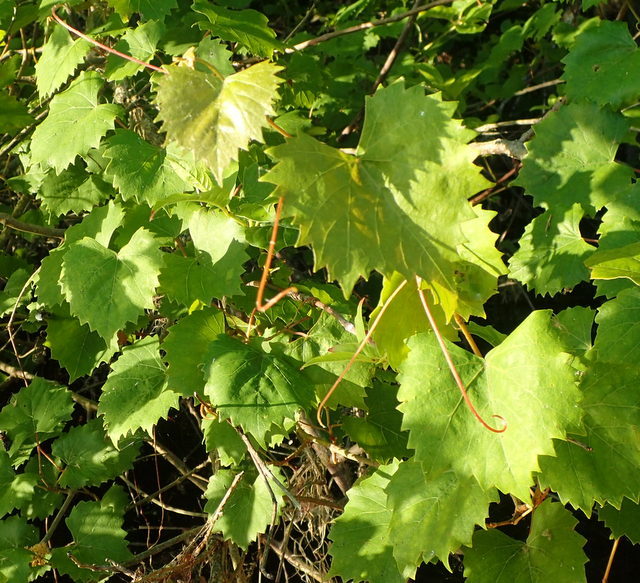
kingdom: Plantae
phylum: Tracheophyta
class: Magnoliopsida
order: Vitales
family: Vitaceae
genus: Vitis
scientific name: Vitis rotundifolia
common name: Muscadine grape
